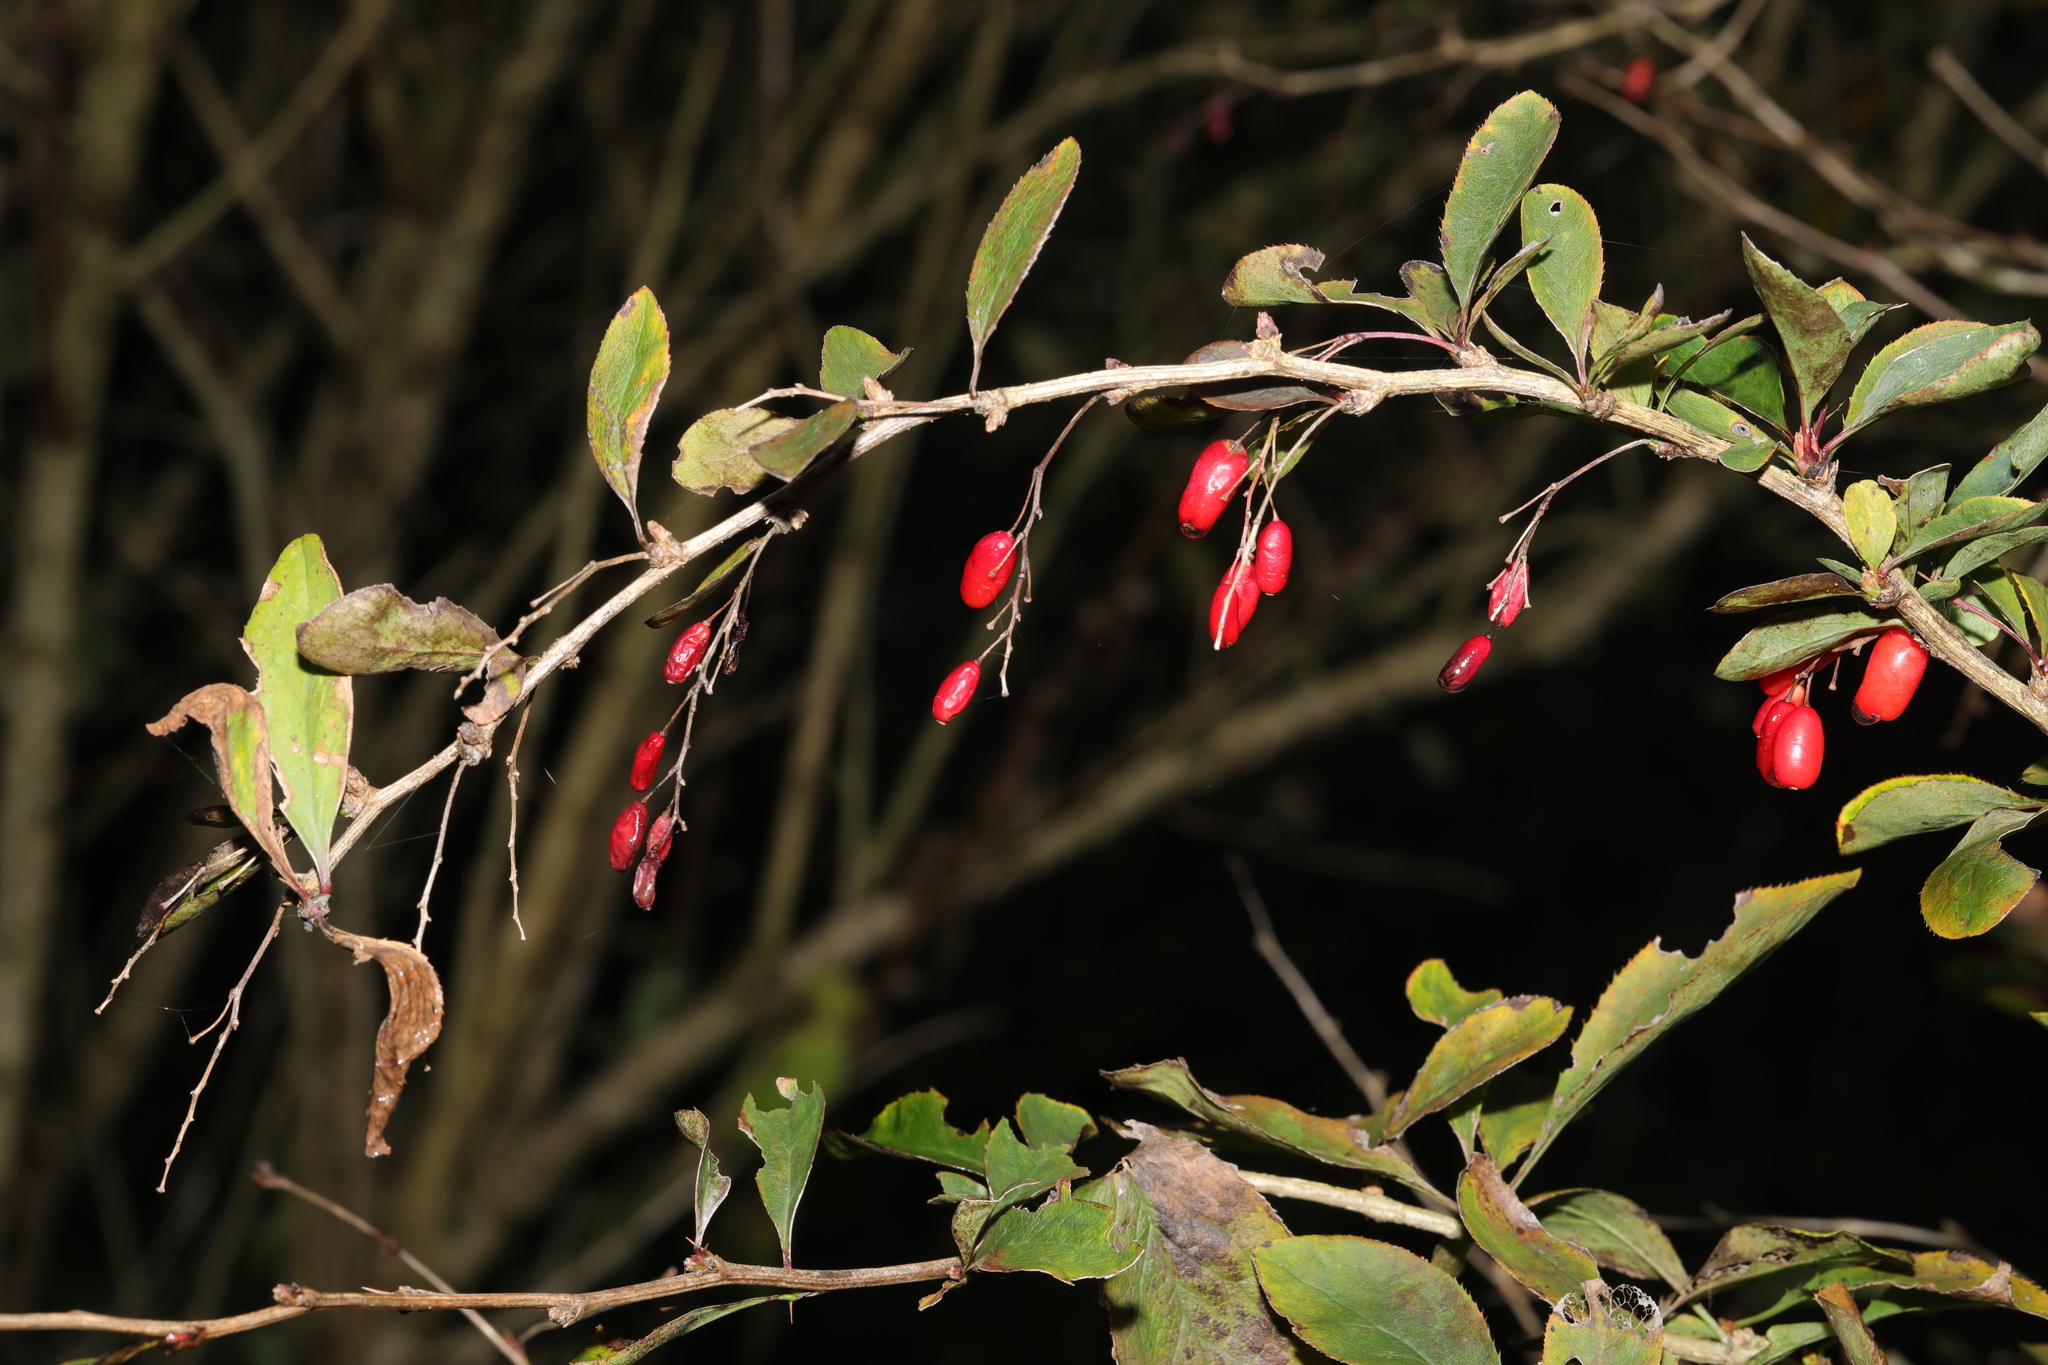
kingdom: Plantae
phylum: Tracheophyta
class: Magnoliopsida
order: Ranunculales
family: Berberidaceae
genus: Berberis
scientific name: Berberis vulgaris
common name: Barberry
